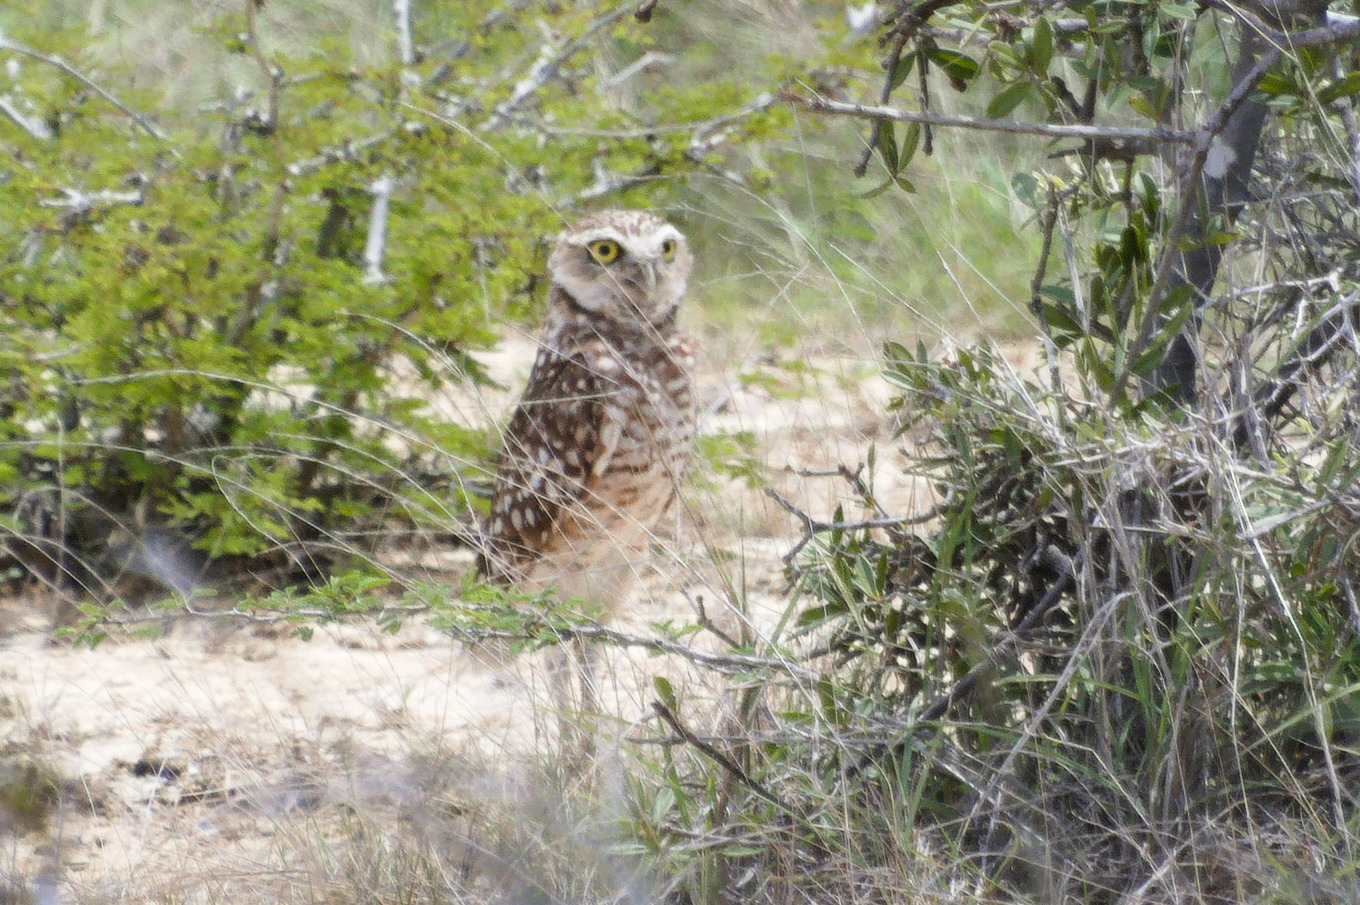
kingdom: Animalia
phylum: Chordata
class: Aves
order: Strigiformes
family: Strigidae
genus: Athene
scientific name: Athene cunicularia
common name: Burrowing owl
